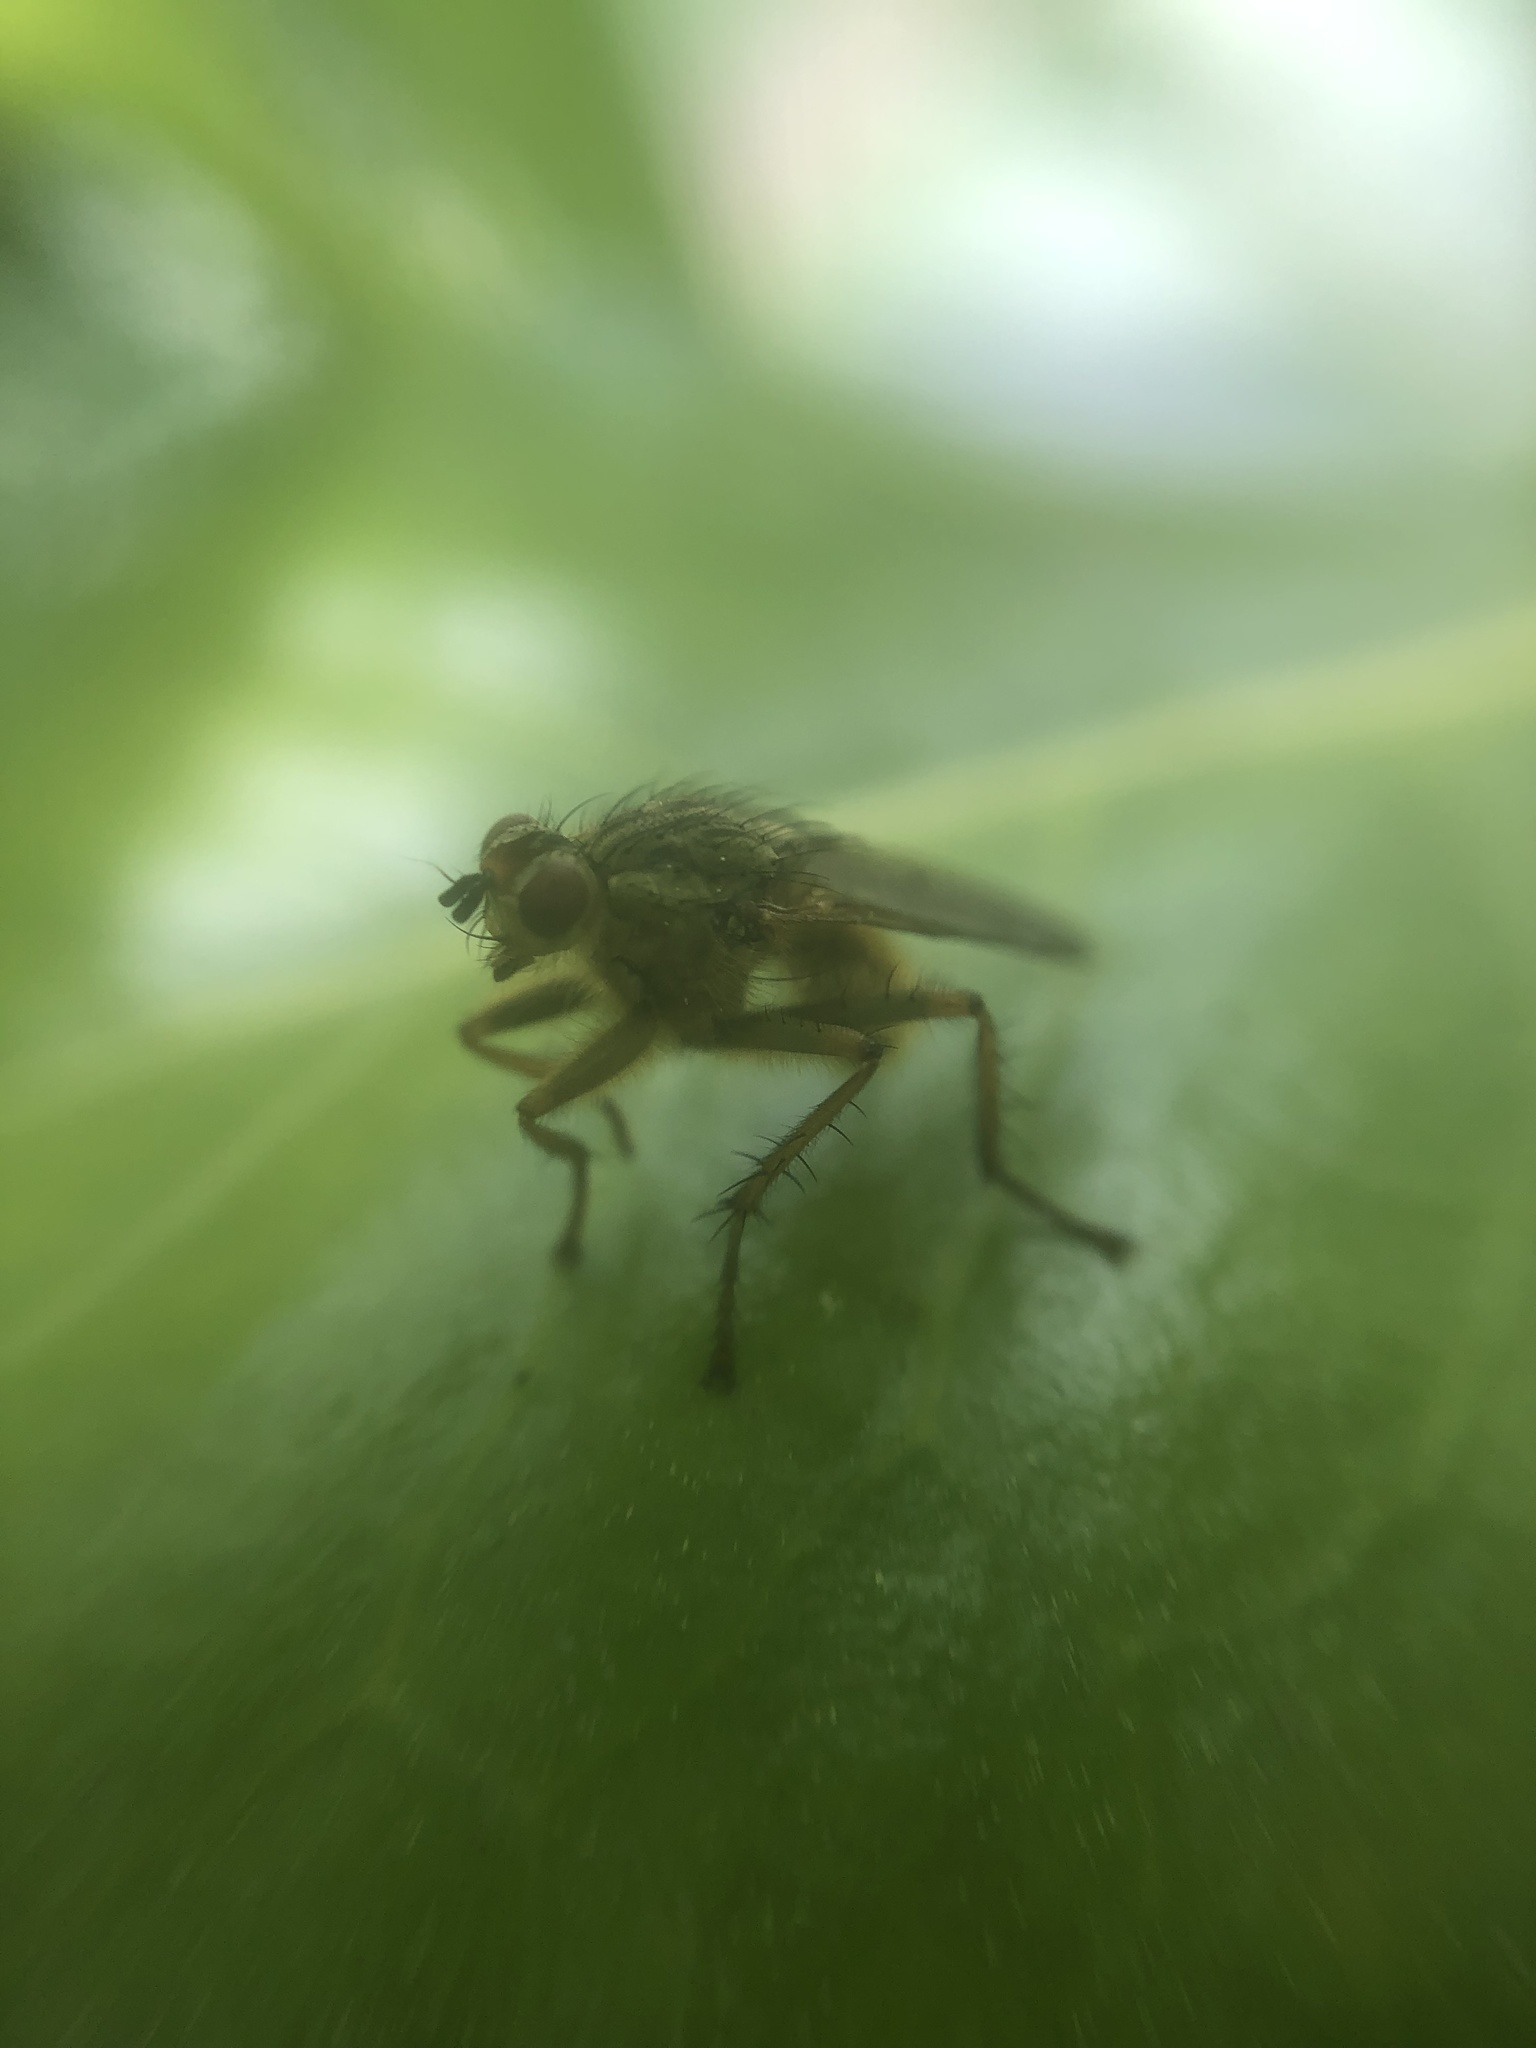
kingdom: Animalia
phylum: Arthropoda
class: Insecta
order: Diptera
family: Scathophagidae
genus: Scathophaga
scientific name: Scathophaga stercoraria
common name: Yellow dung fly
